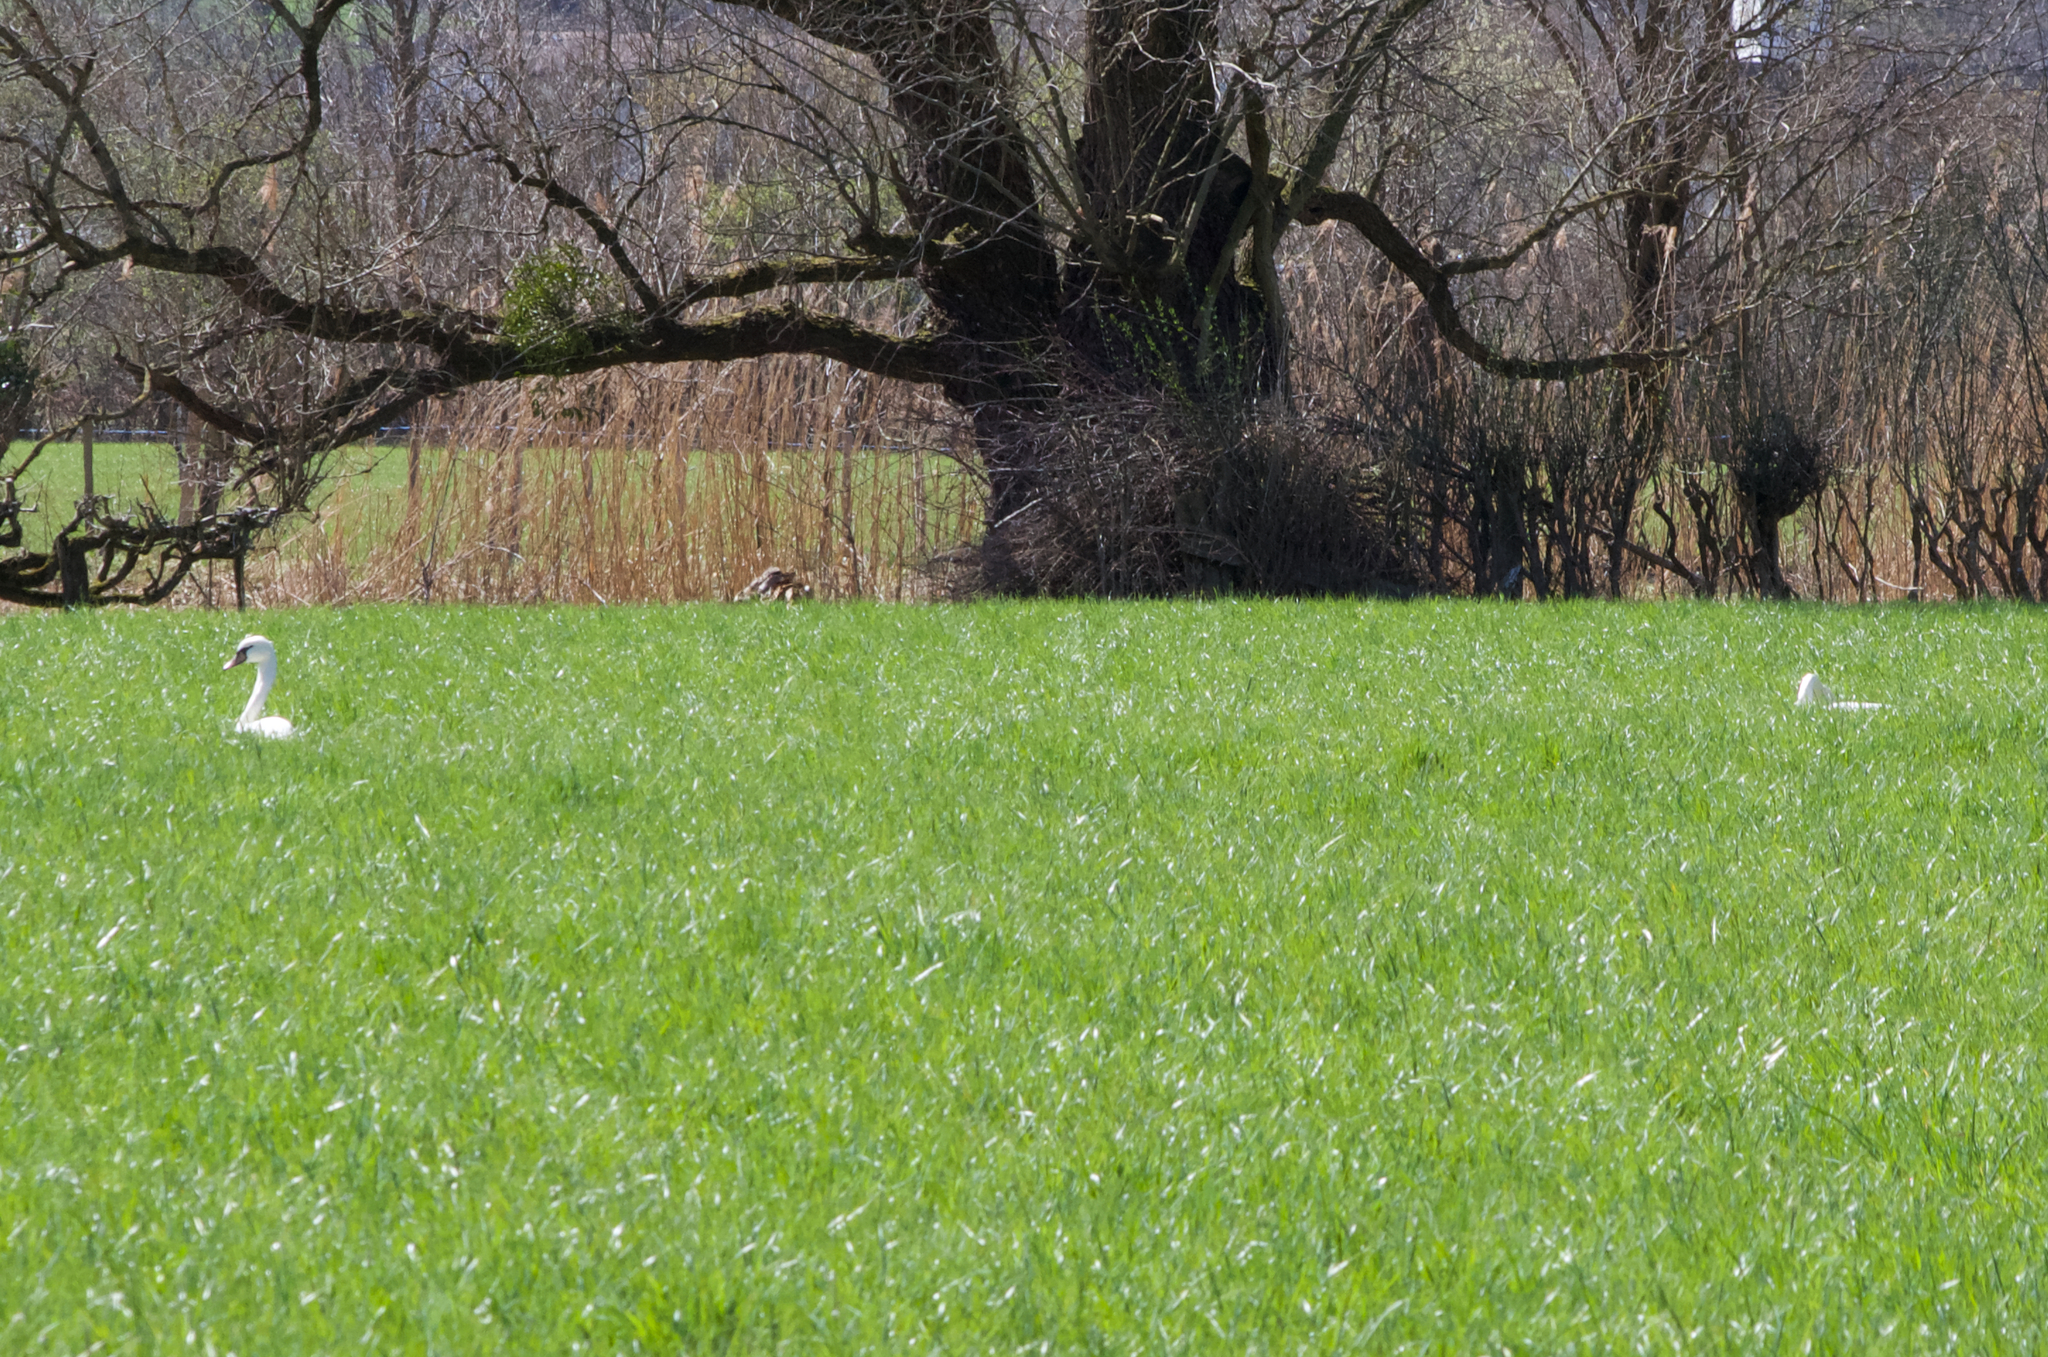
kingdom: Animalia
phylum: Chordata
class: Aves
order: Anseriformes
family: Anatidae
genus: Cygnus
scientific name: Cygnus olor
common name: Mute swan
